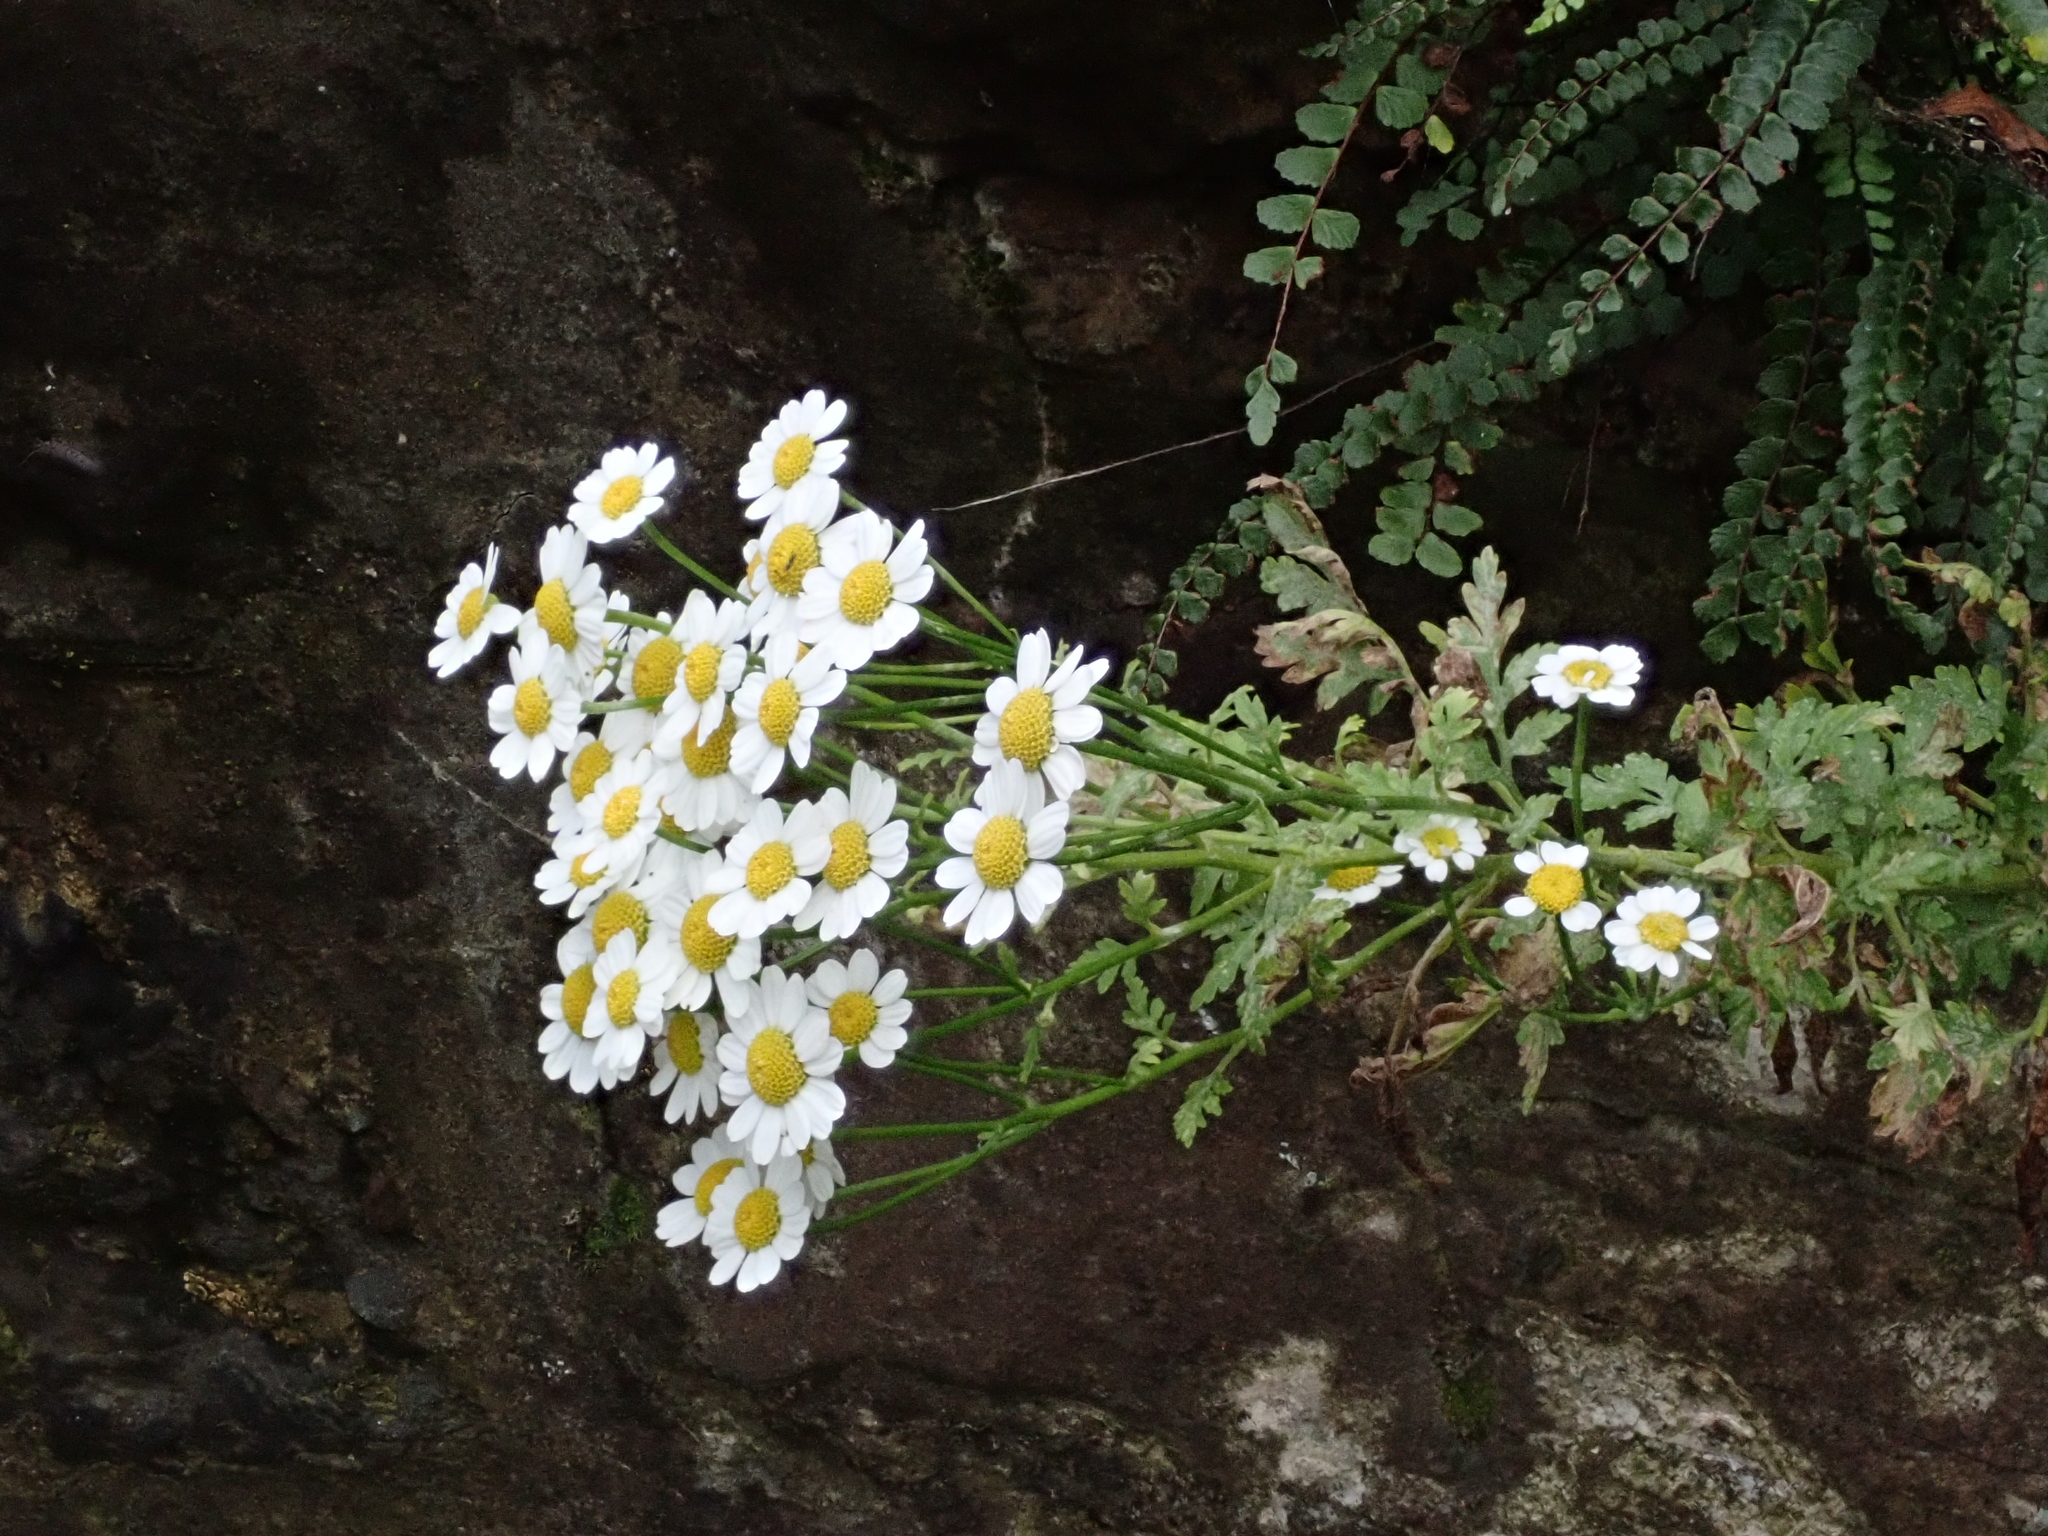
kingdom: Plantae
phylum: Tracheophyta
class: Magnoliopsida
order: Asterales
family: Asteraceae
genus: Tanacetum
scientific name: Tanacetum parthenium
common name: Feverfew
